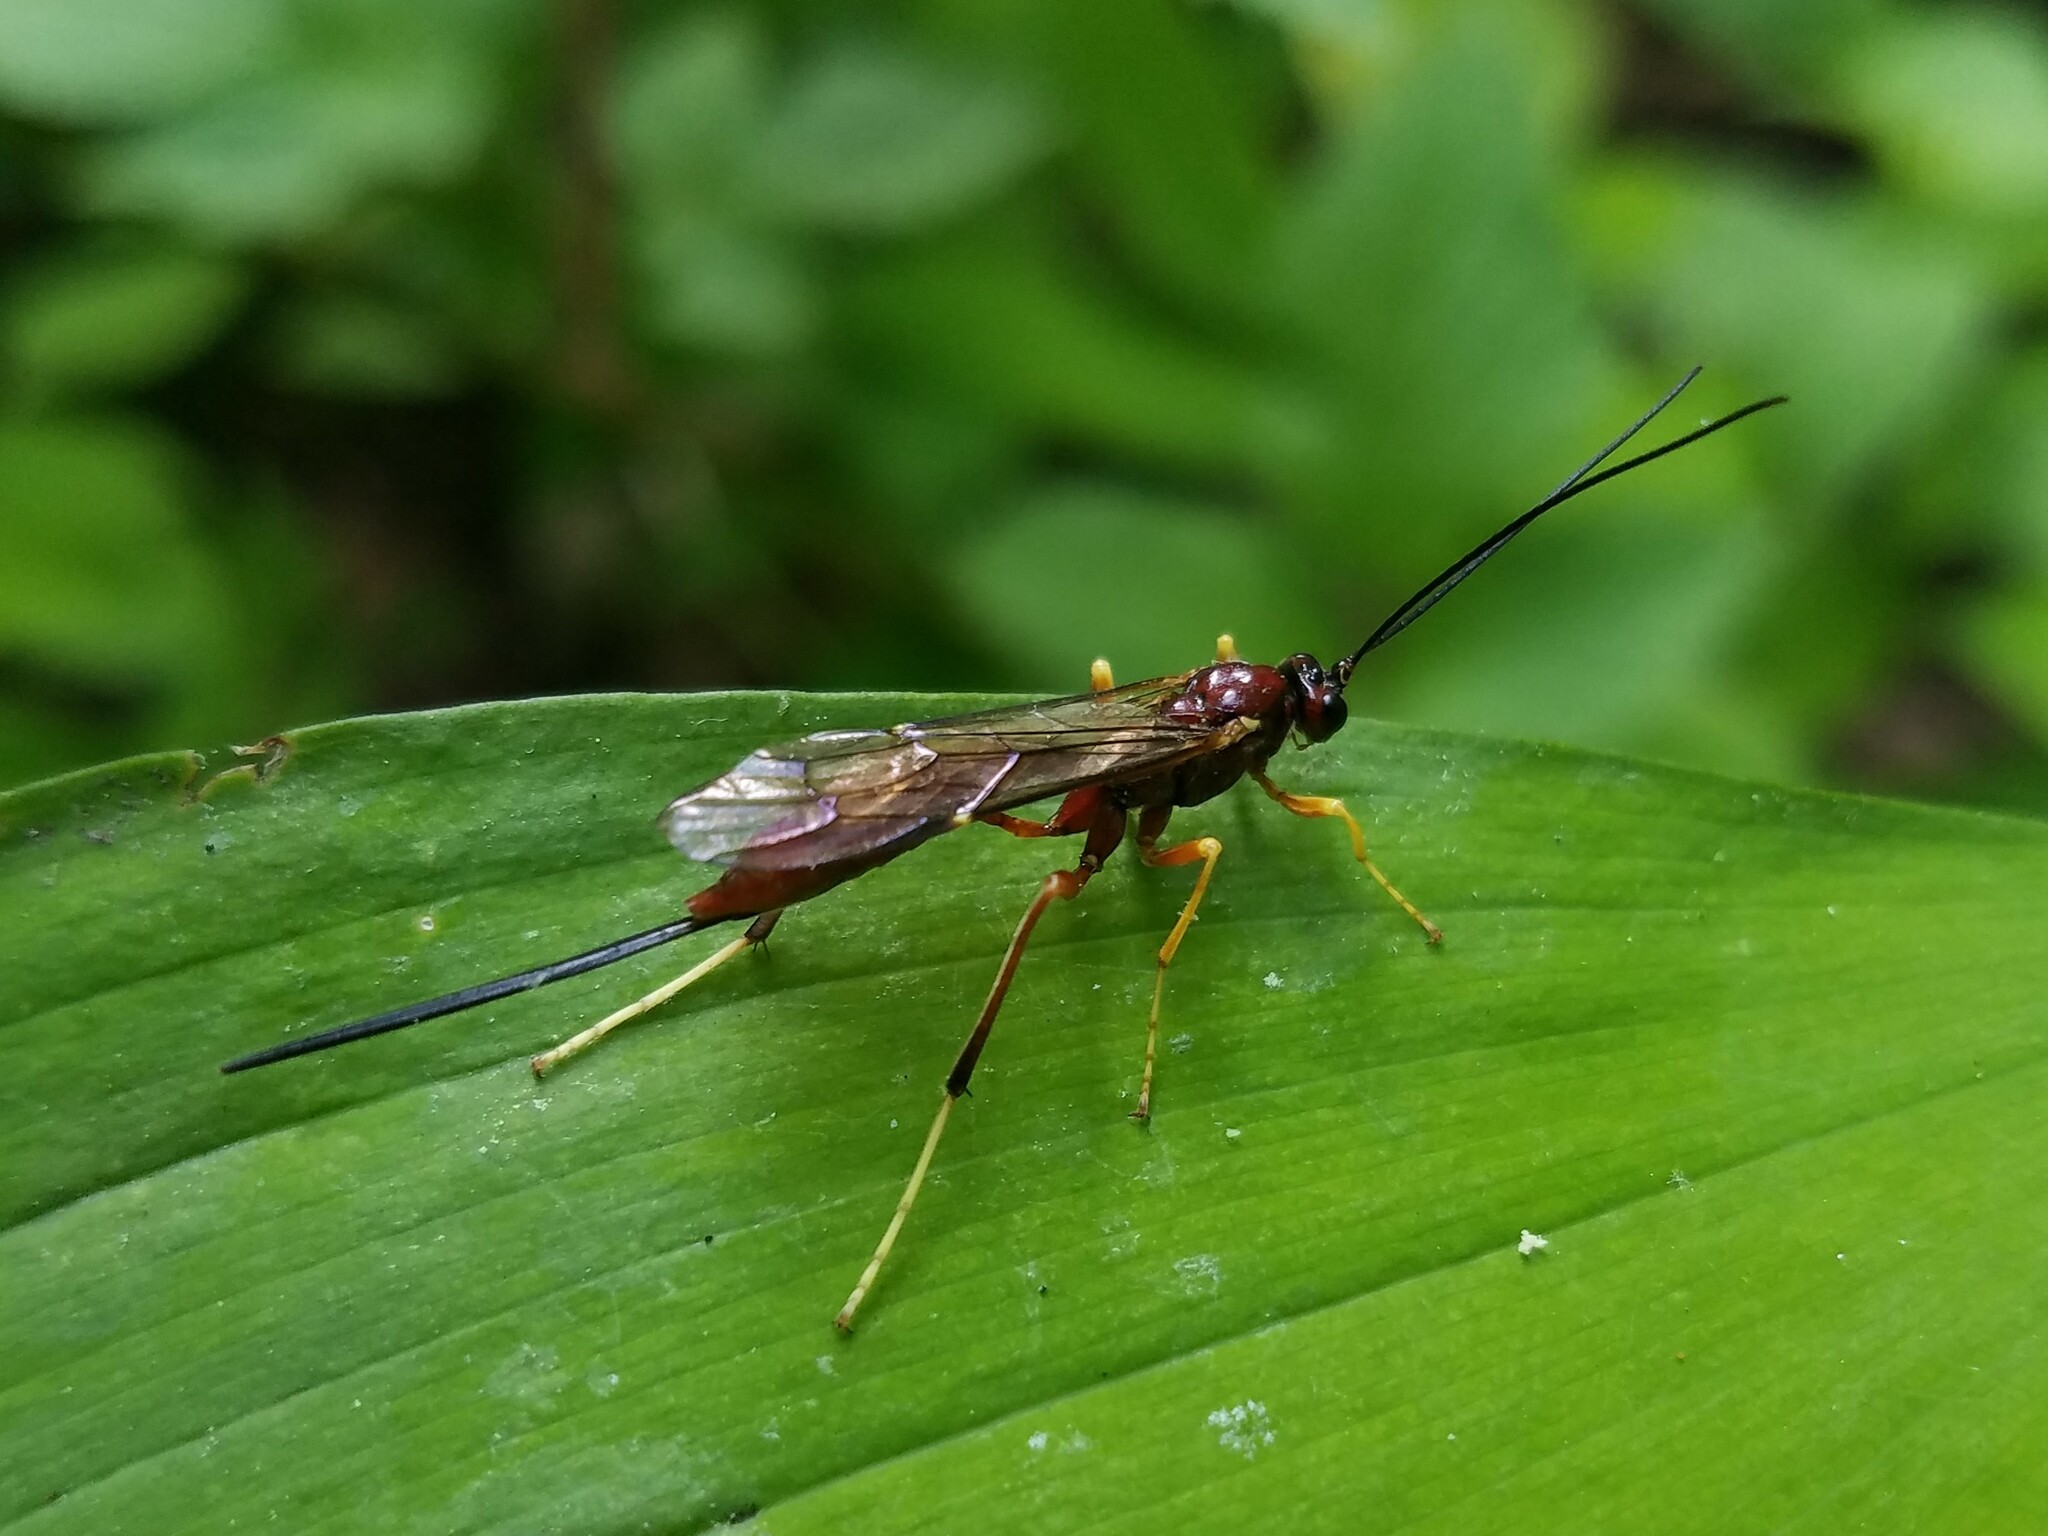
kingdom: Animalia
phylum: Arthropoda
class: Insecta
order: Hymenoptera
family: Ichneumonidae
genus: Coleocentrus
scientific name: Coleocentrus rufus
